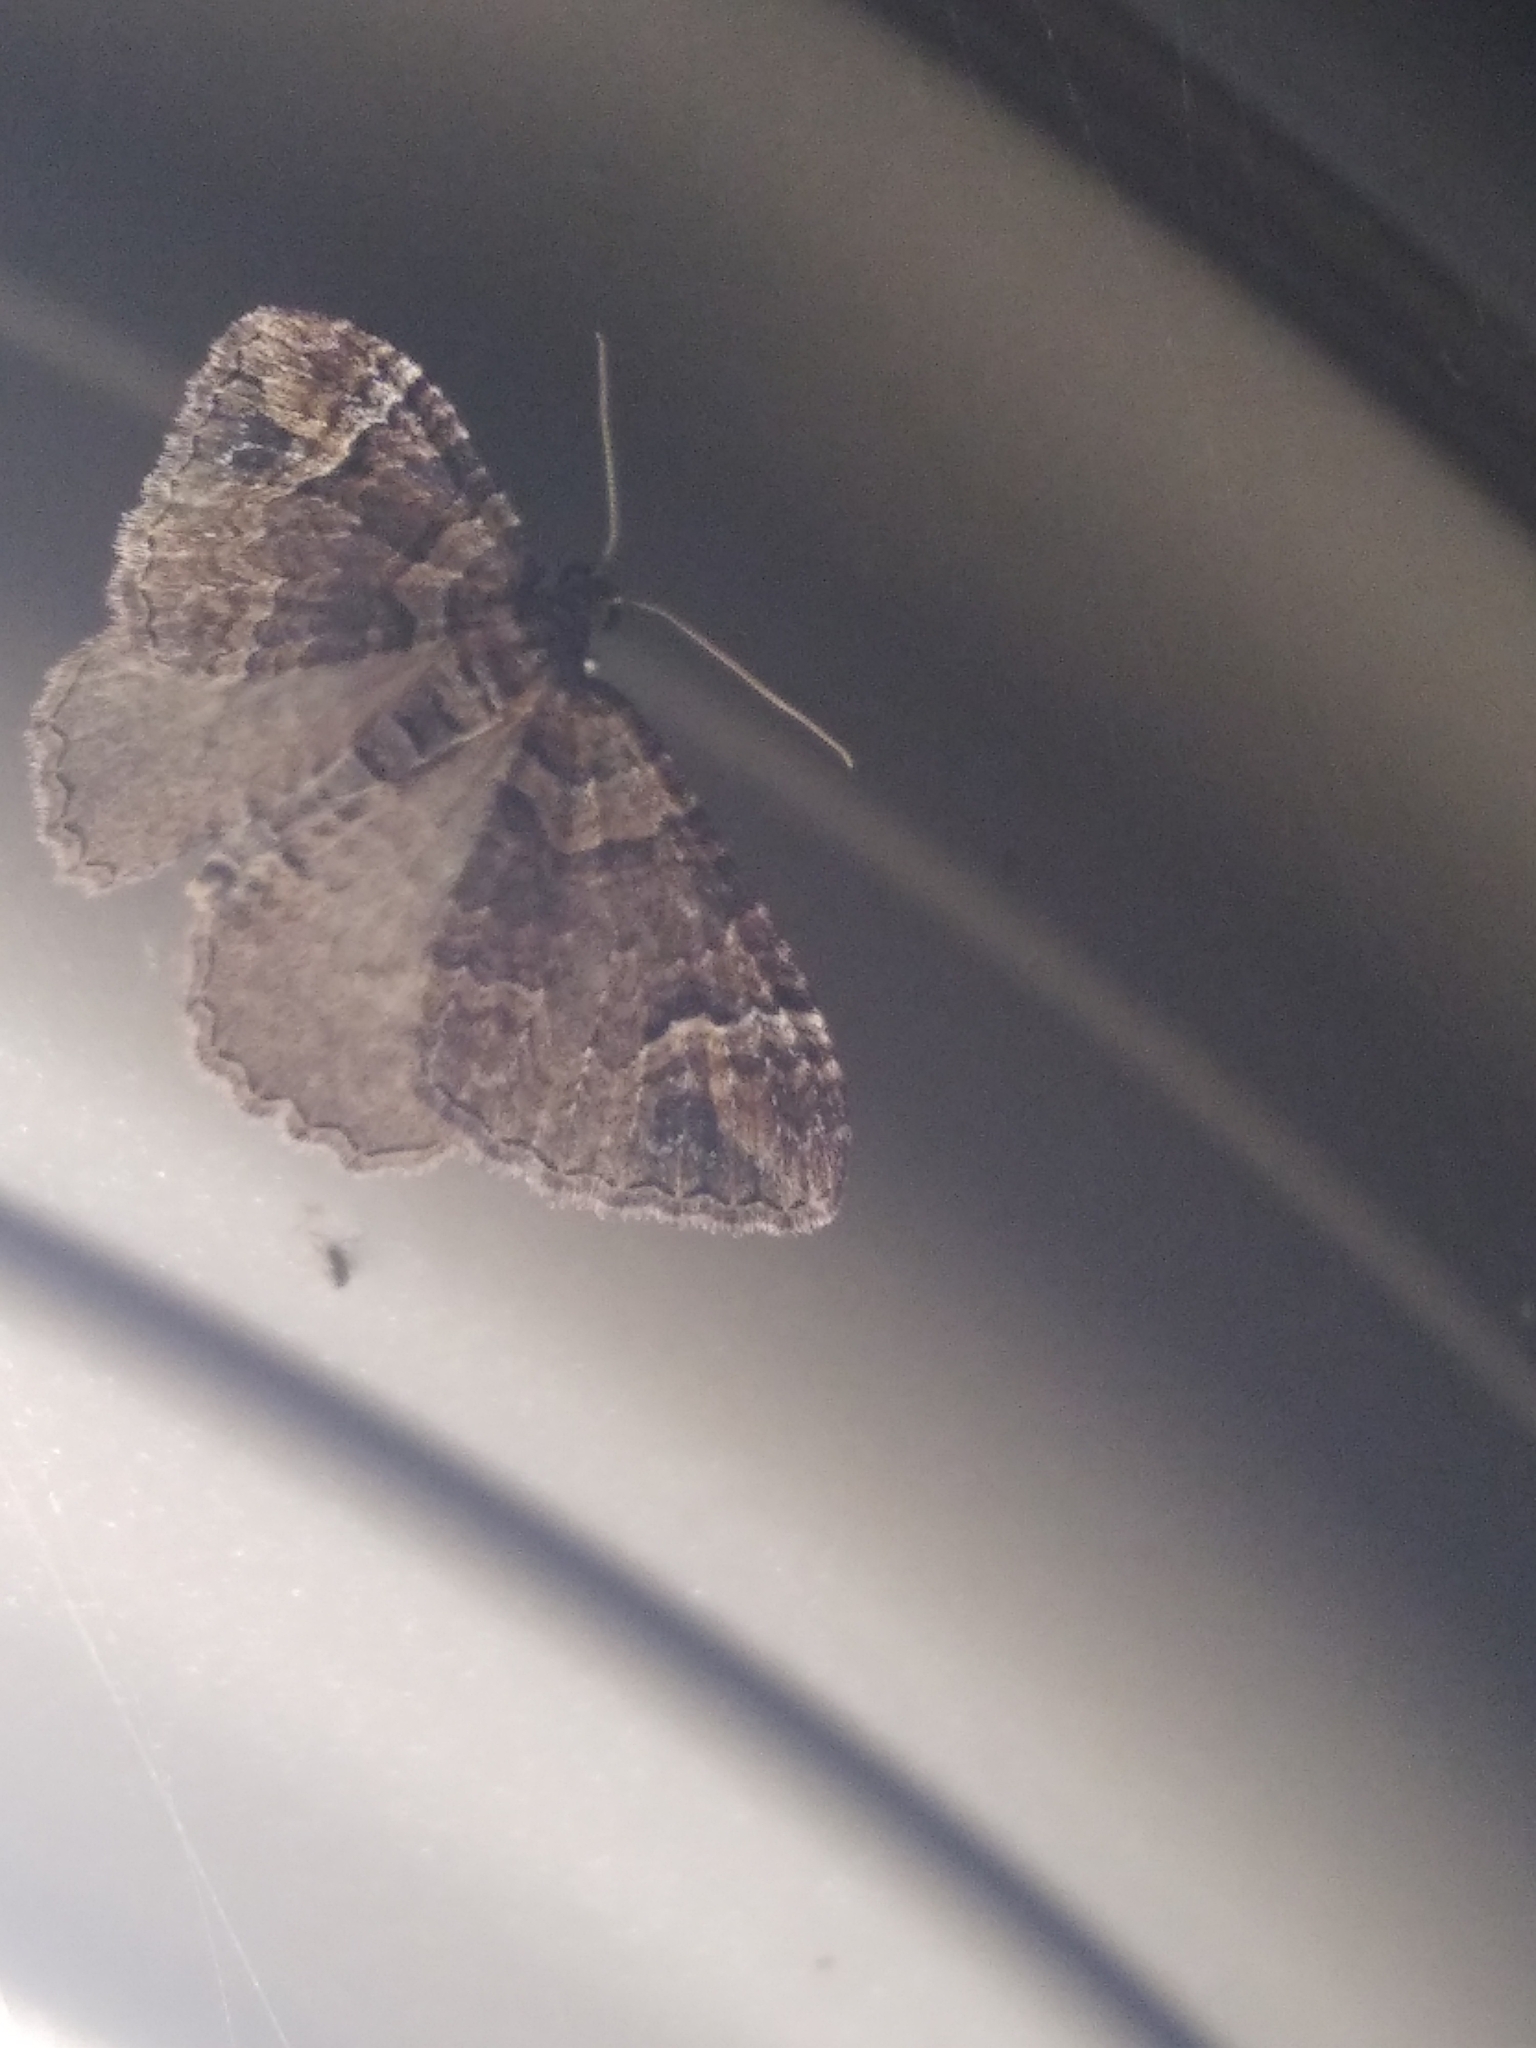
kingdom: Animalia
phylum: Arthropoda
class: Insecta
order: Lepidoptera
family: Geometridae
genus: Catarhoe
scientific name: Catarhoe basochesiata
